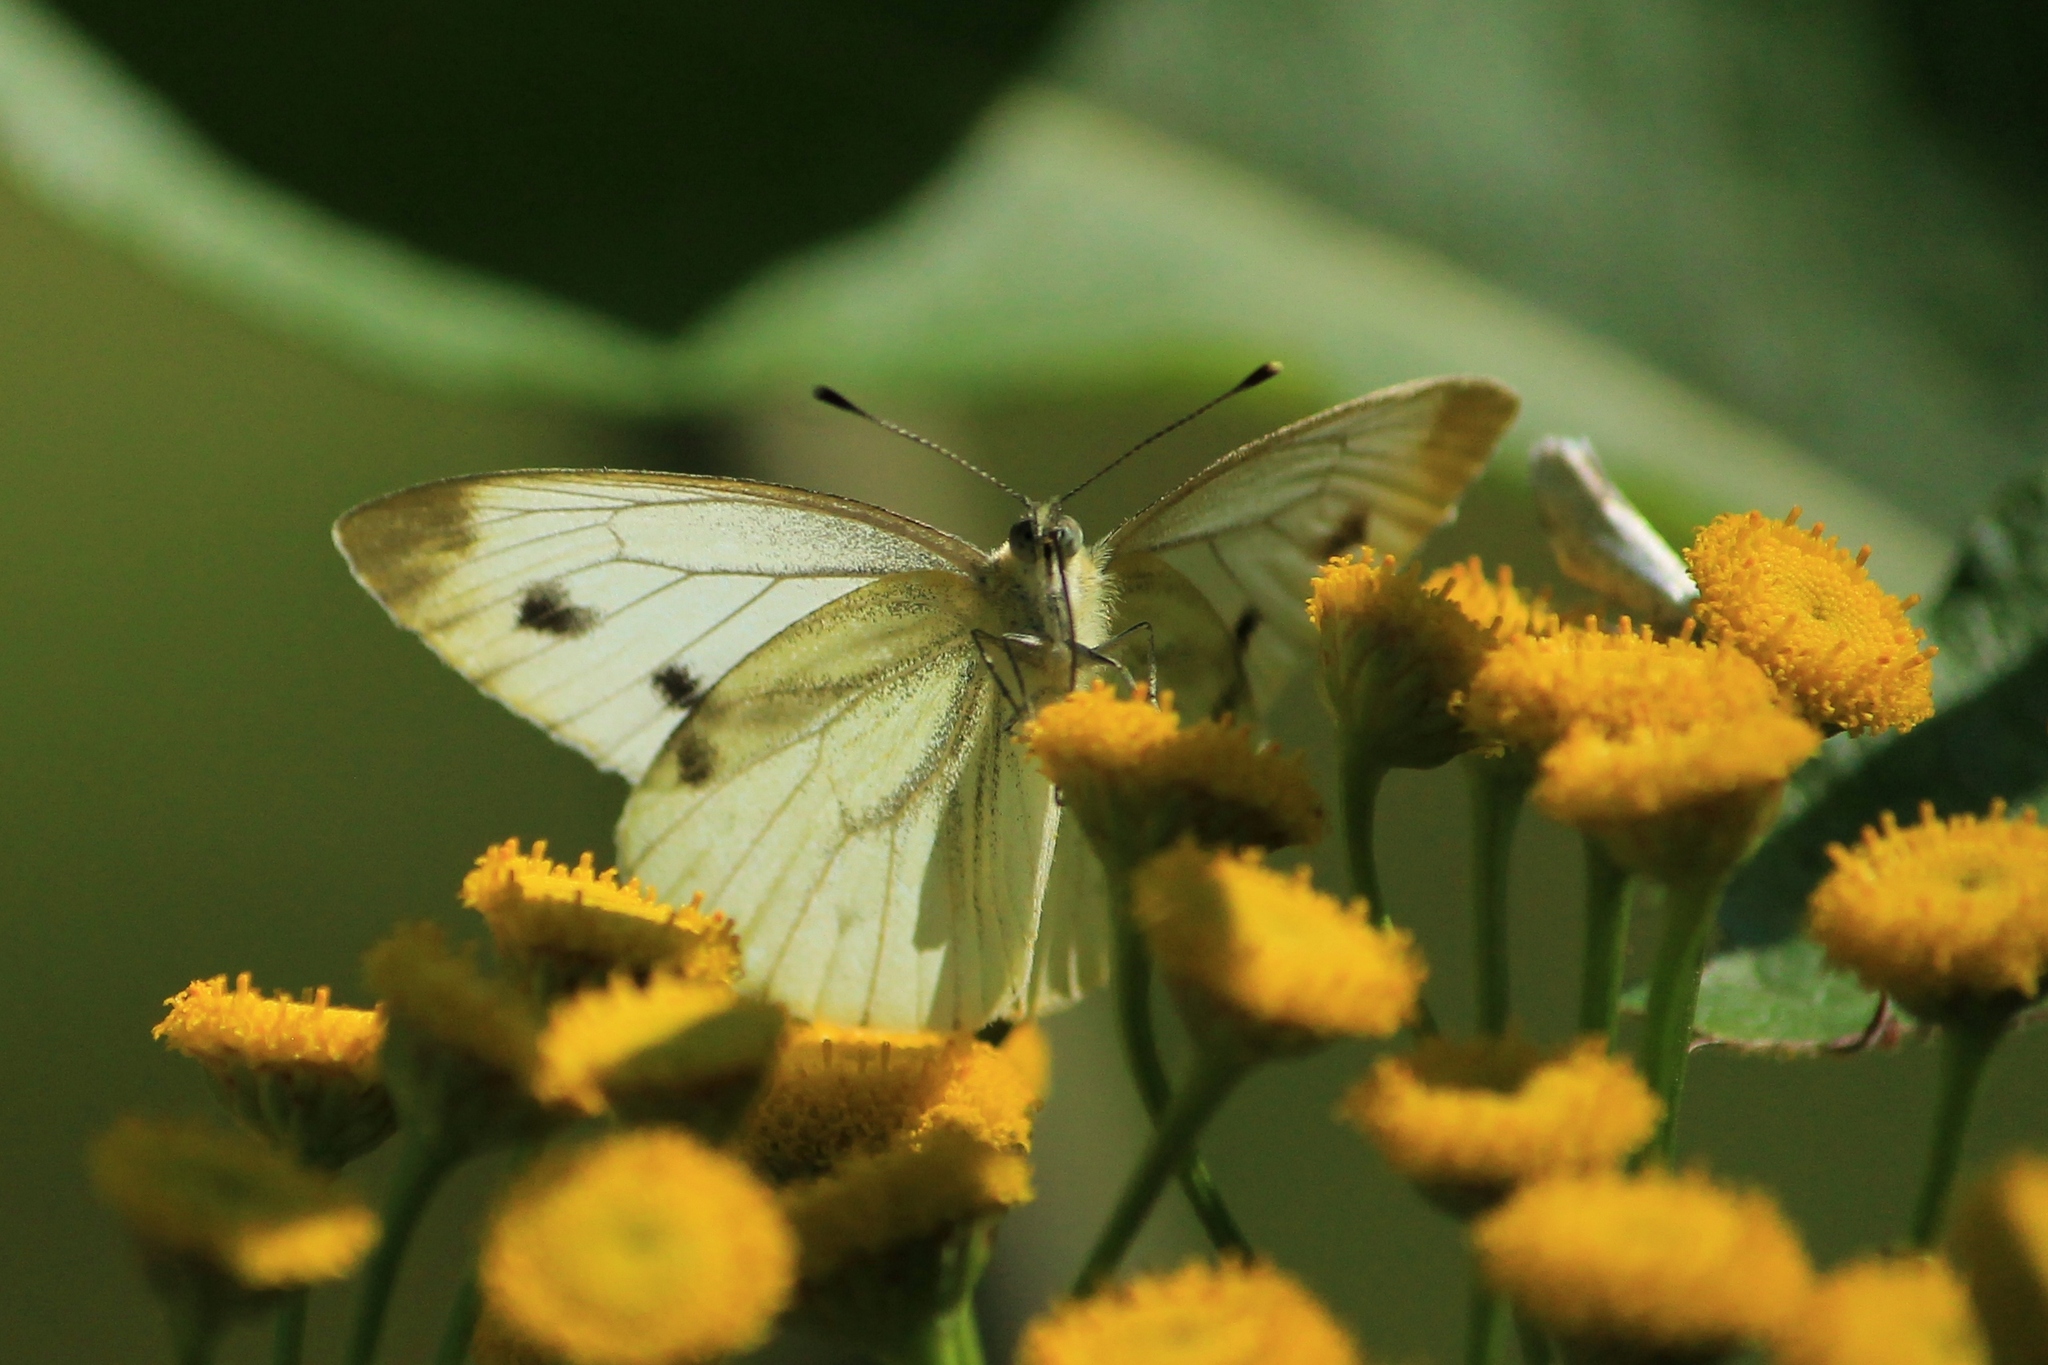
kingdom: Animalia
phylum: Arthropoda
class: Insecta
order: Lepidoptera
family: Pieridae
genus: Pieris
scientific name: Pieris napi
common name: Green-veined white
